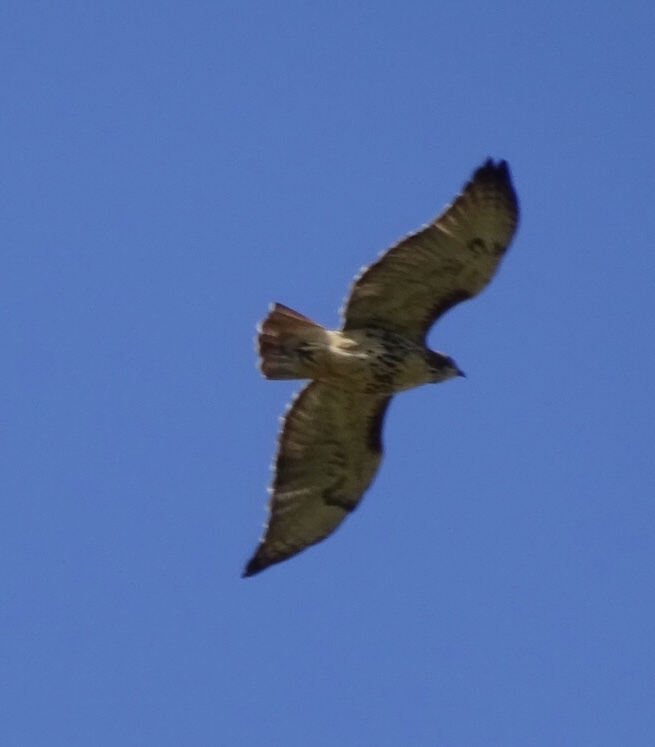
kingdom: Animalia
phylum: Chordata
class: Aves
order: Accipitriformes
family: Accipitridae
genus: Buteo
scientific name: Buteo jamaicensis
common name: Red-tailed hawk
